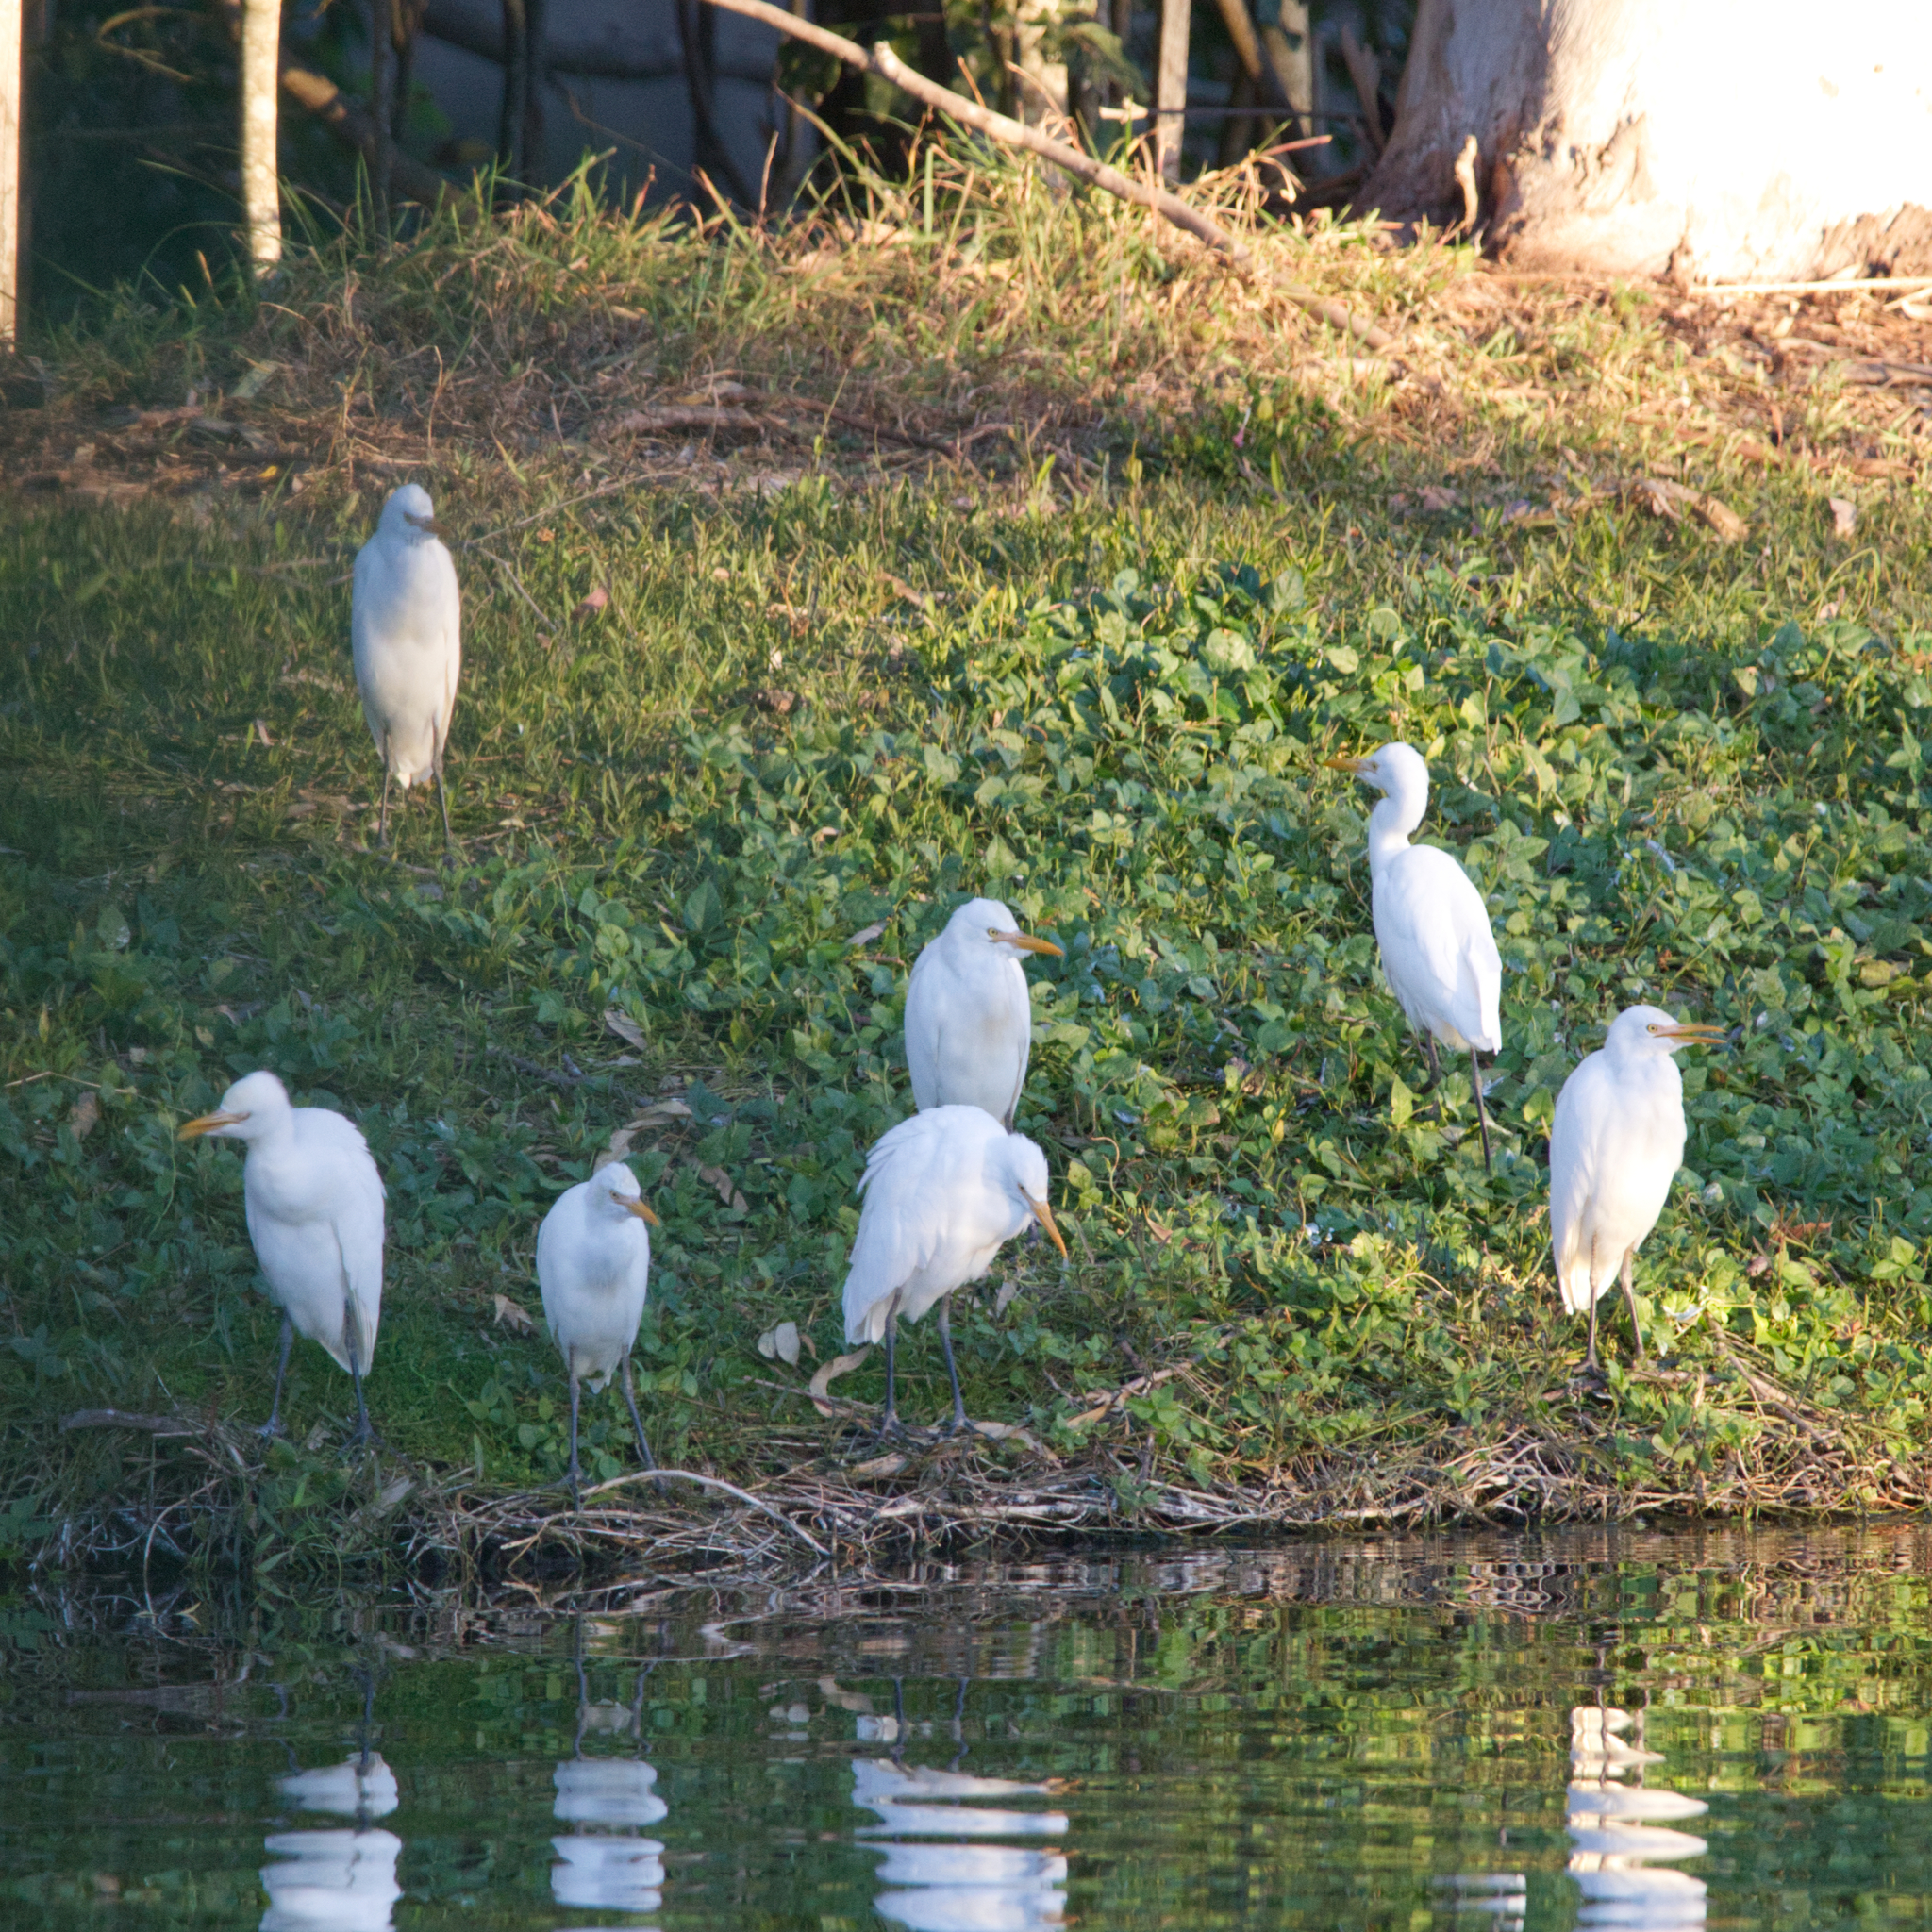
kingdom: Animalia
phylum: Chordata
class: Aves
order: Pelecaniformes
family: Ardeidae
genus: Bubulcus
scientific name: Bubulcus coromandus
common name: Eastern cattle egret
